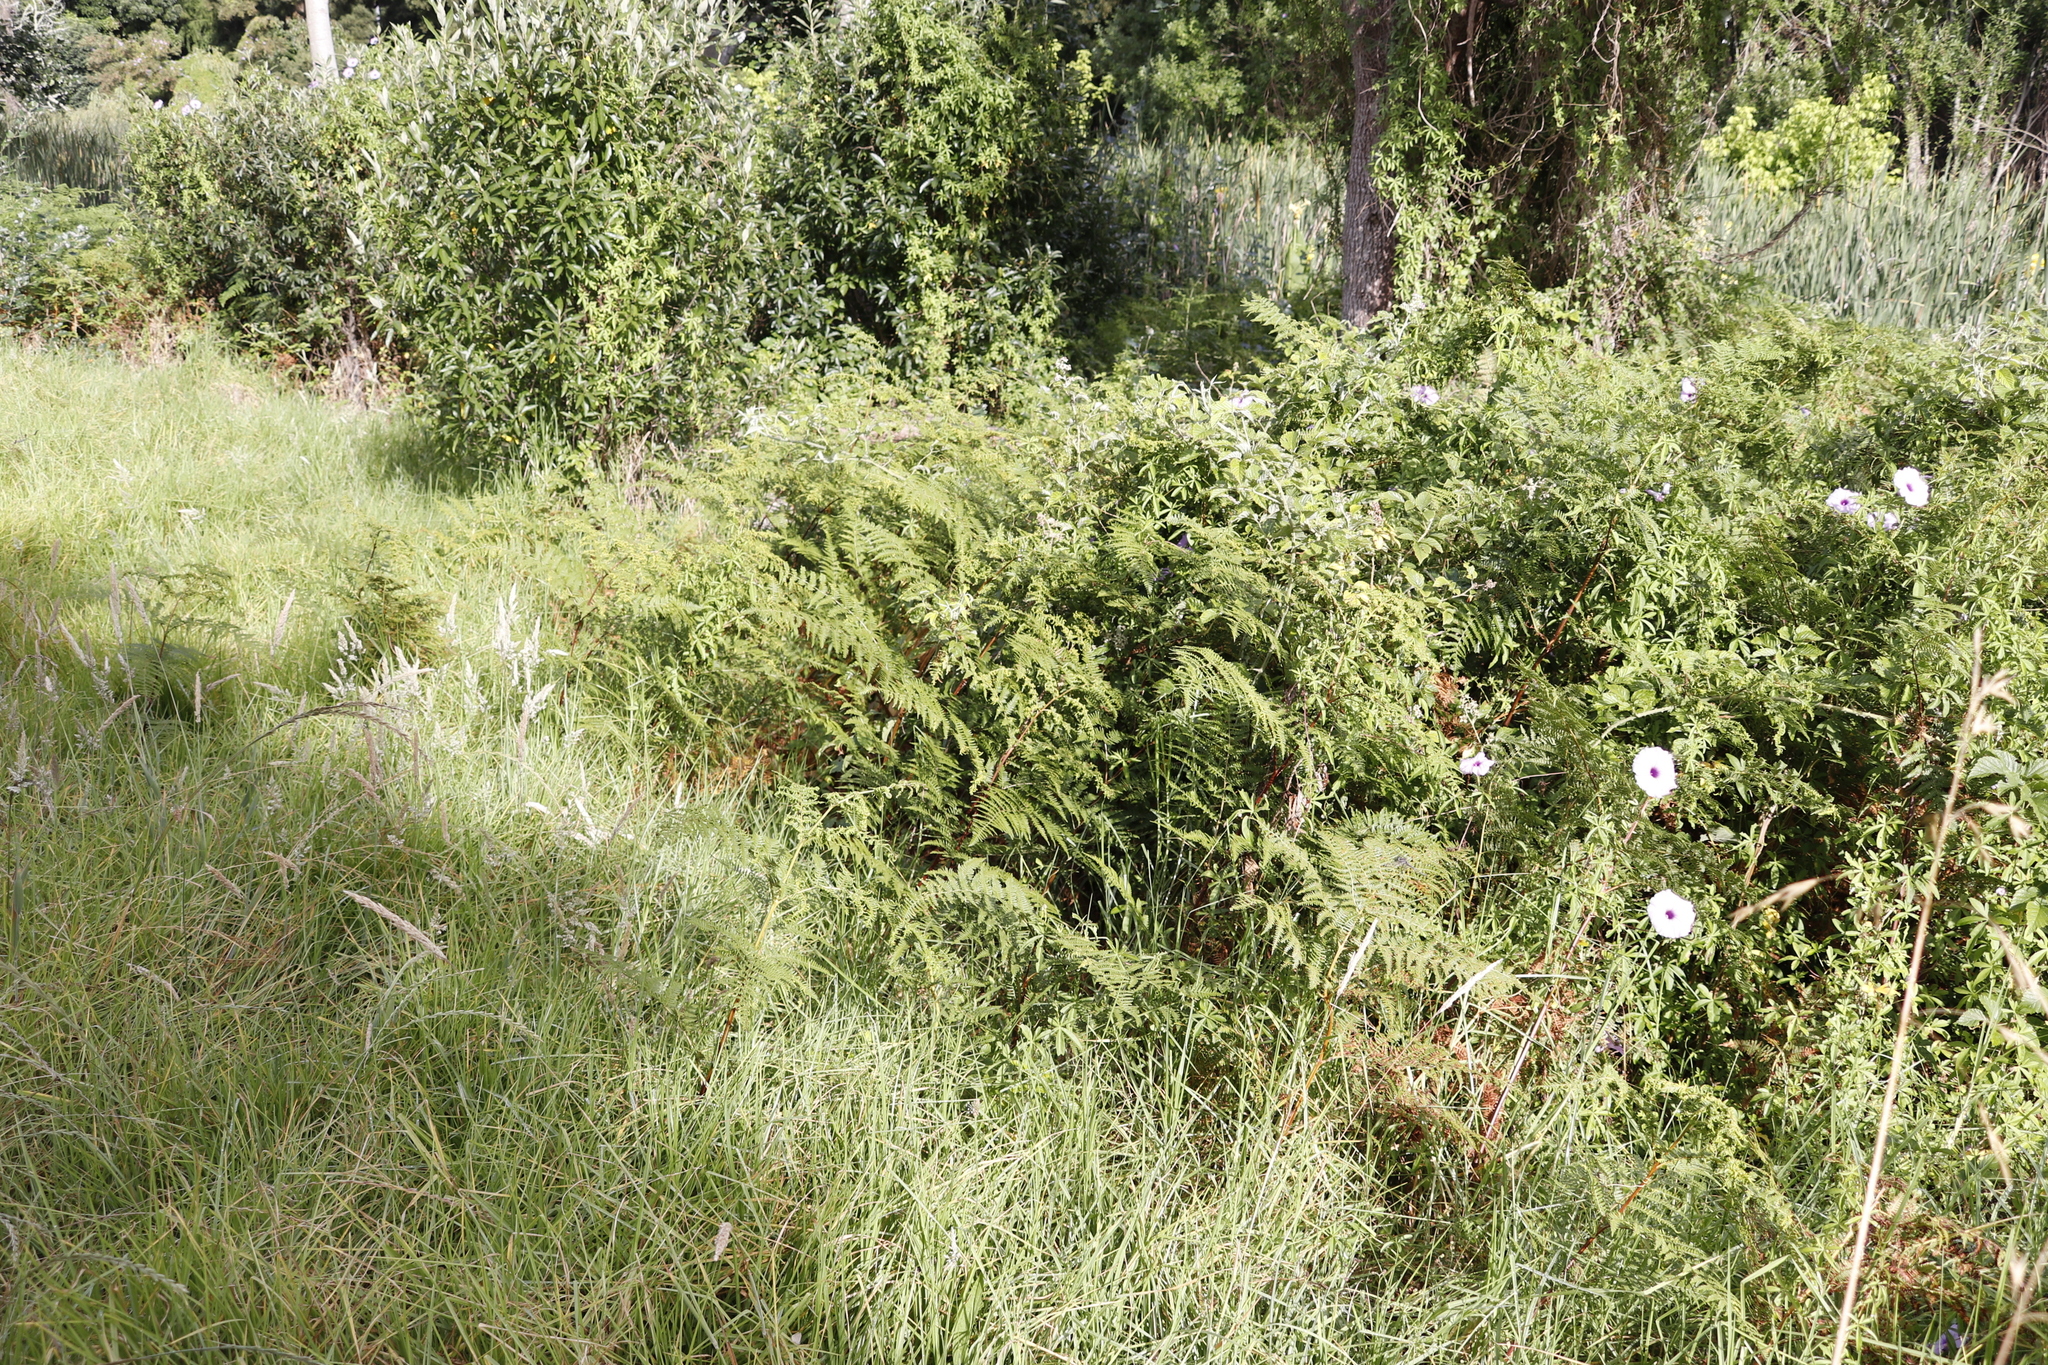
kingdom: Plantae
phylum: Tracheophyta
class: Polypodiopsida
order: Polypodiales
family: Dennstaedtiaceae
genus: Pteridium
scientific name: Pteridium aquilinum
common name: Bracken
